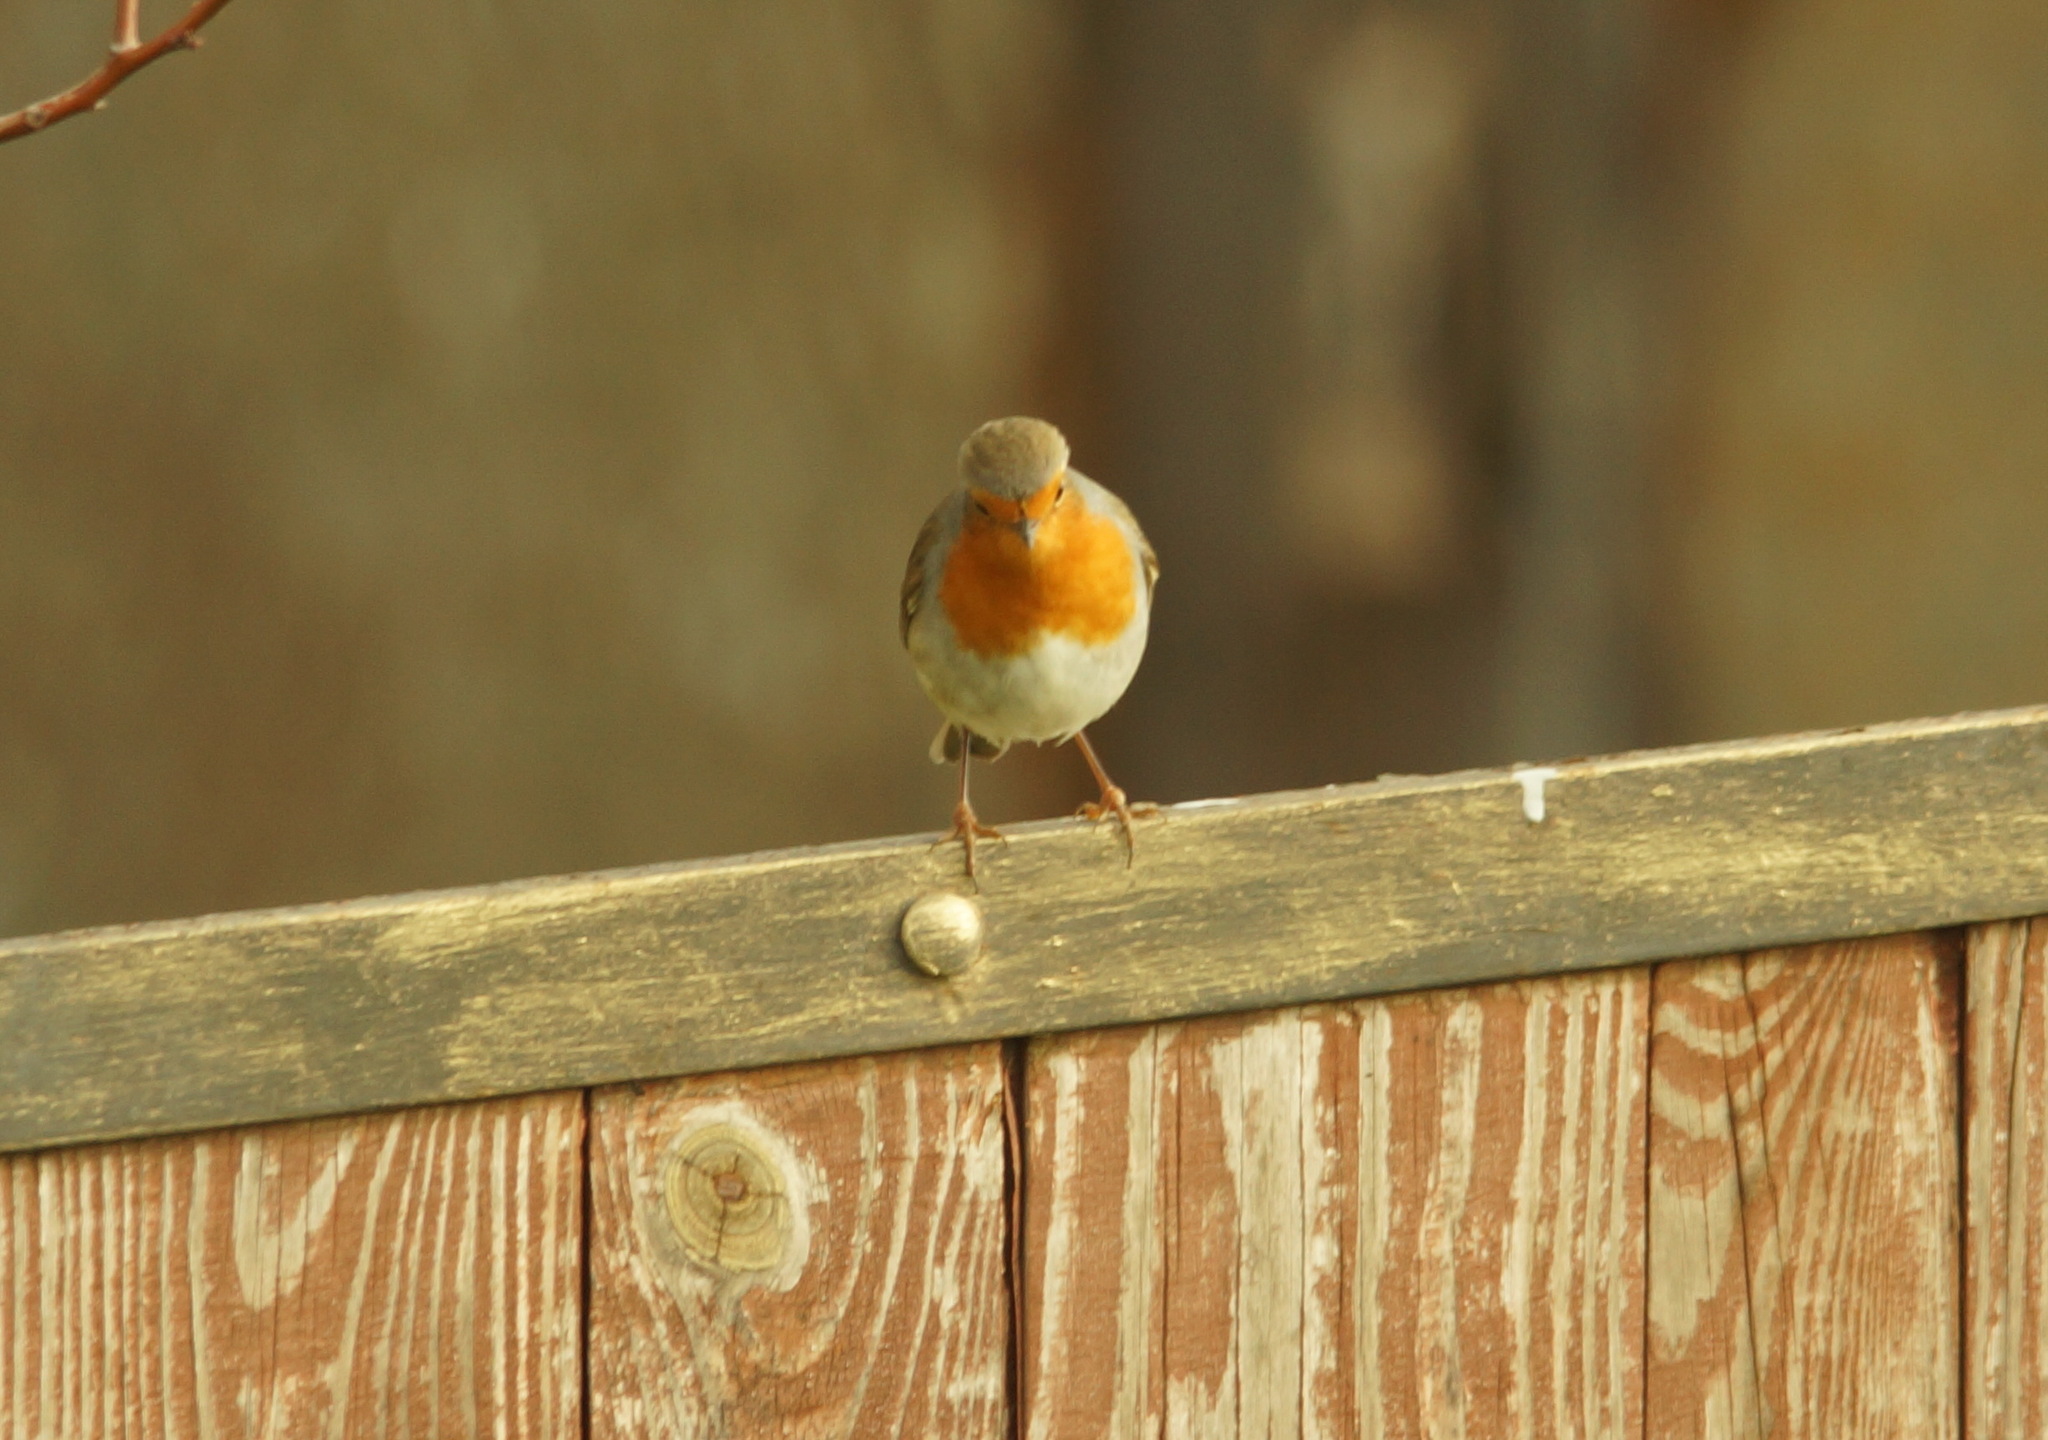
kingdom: Animalia
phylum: Chordata
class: Aves
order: Passeriformes
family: Muscicapidae
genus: Erithacus
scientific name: Erithacus rubecula
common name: European robin
